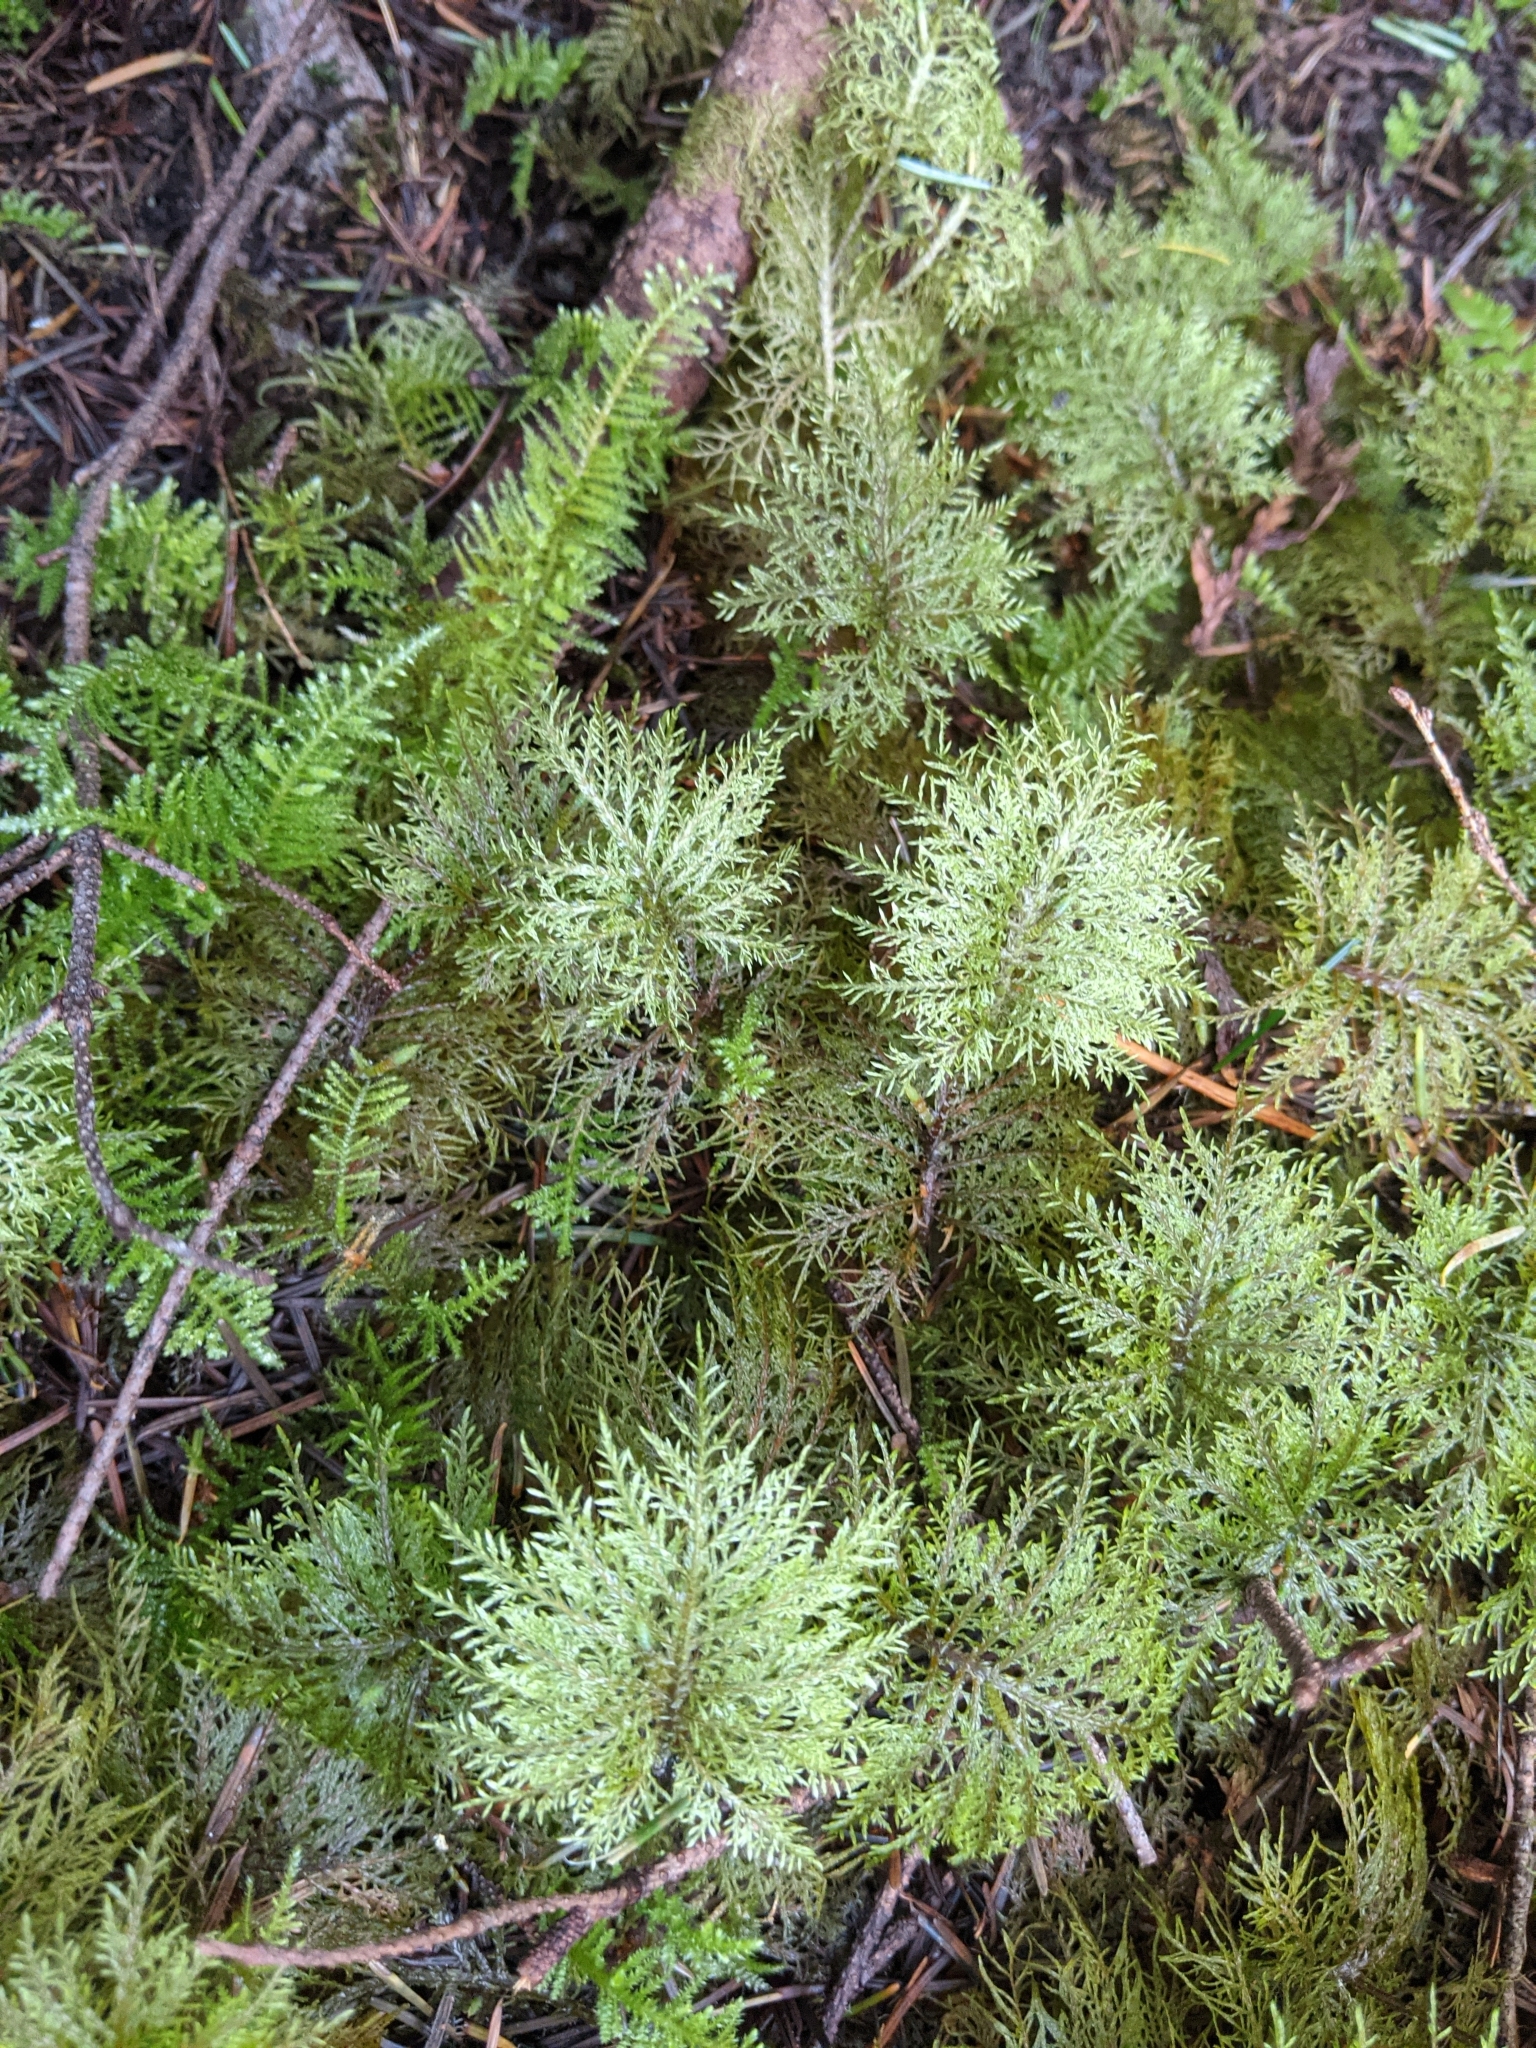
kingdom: Plantae
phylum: Bryophyta
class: Bryopsida
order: Hypnales
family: Hylocomiaceae
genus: Hylocomium
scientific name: Hylocomium splendens
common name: Stairstep moss
